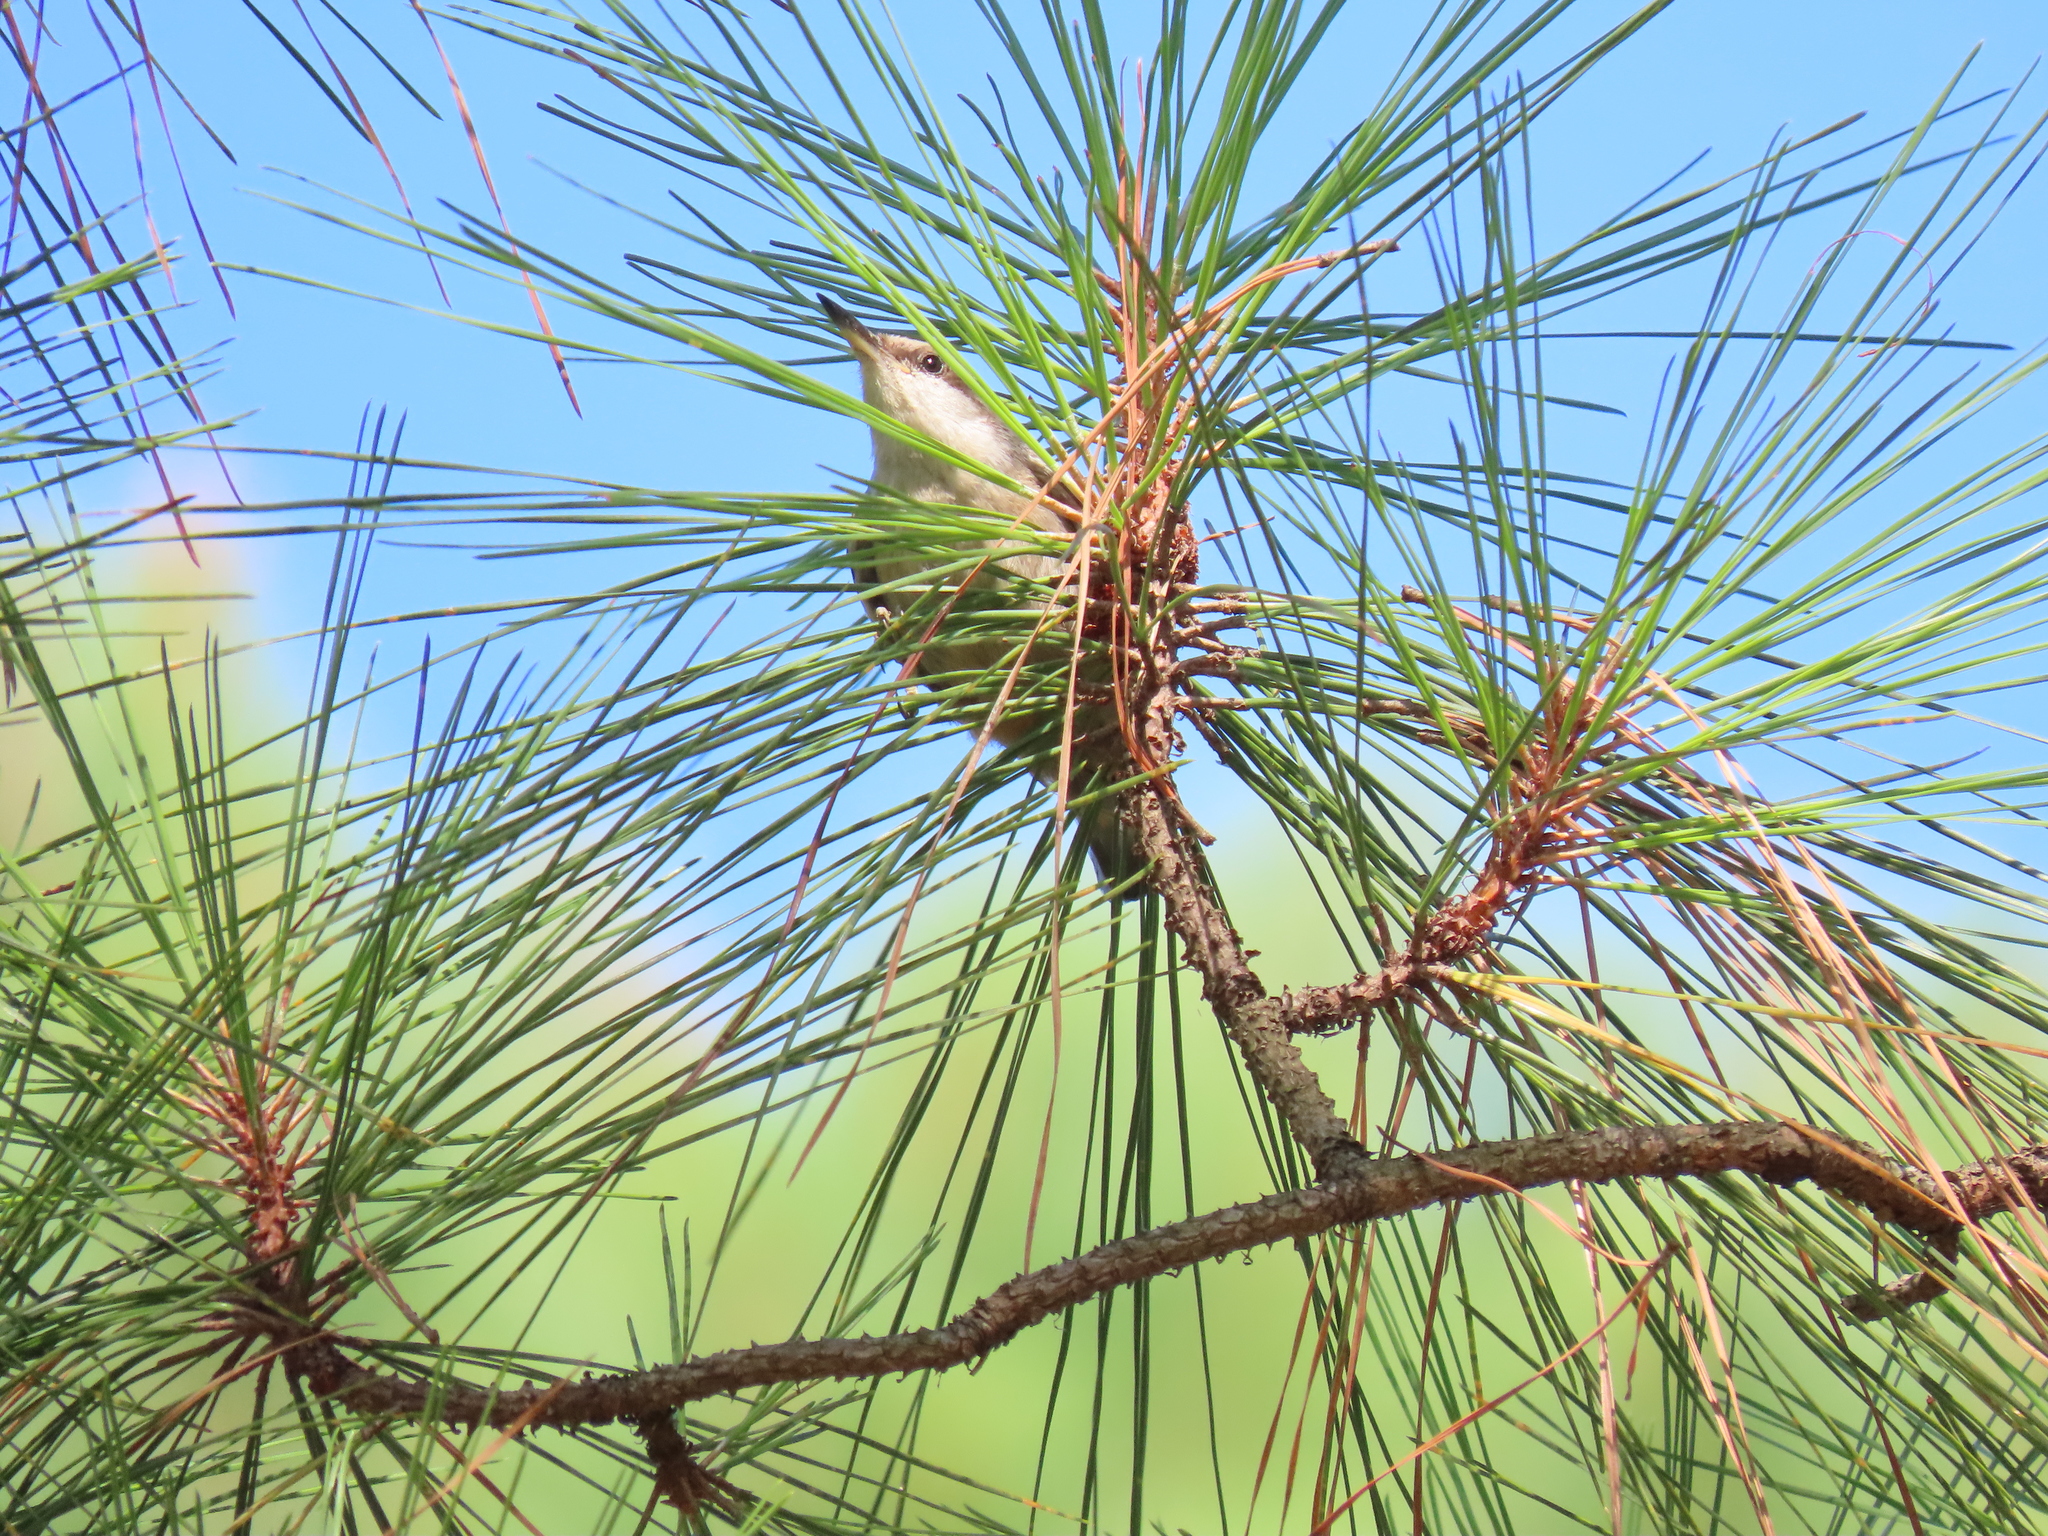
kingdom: Animalia
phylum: Chordata
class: Aves
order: Passeriformes
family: Sittidae
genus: Sitta
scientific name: Sitta pusilla
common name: Brown-headed nuthatch
